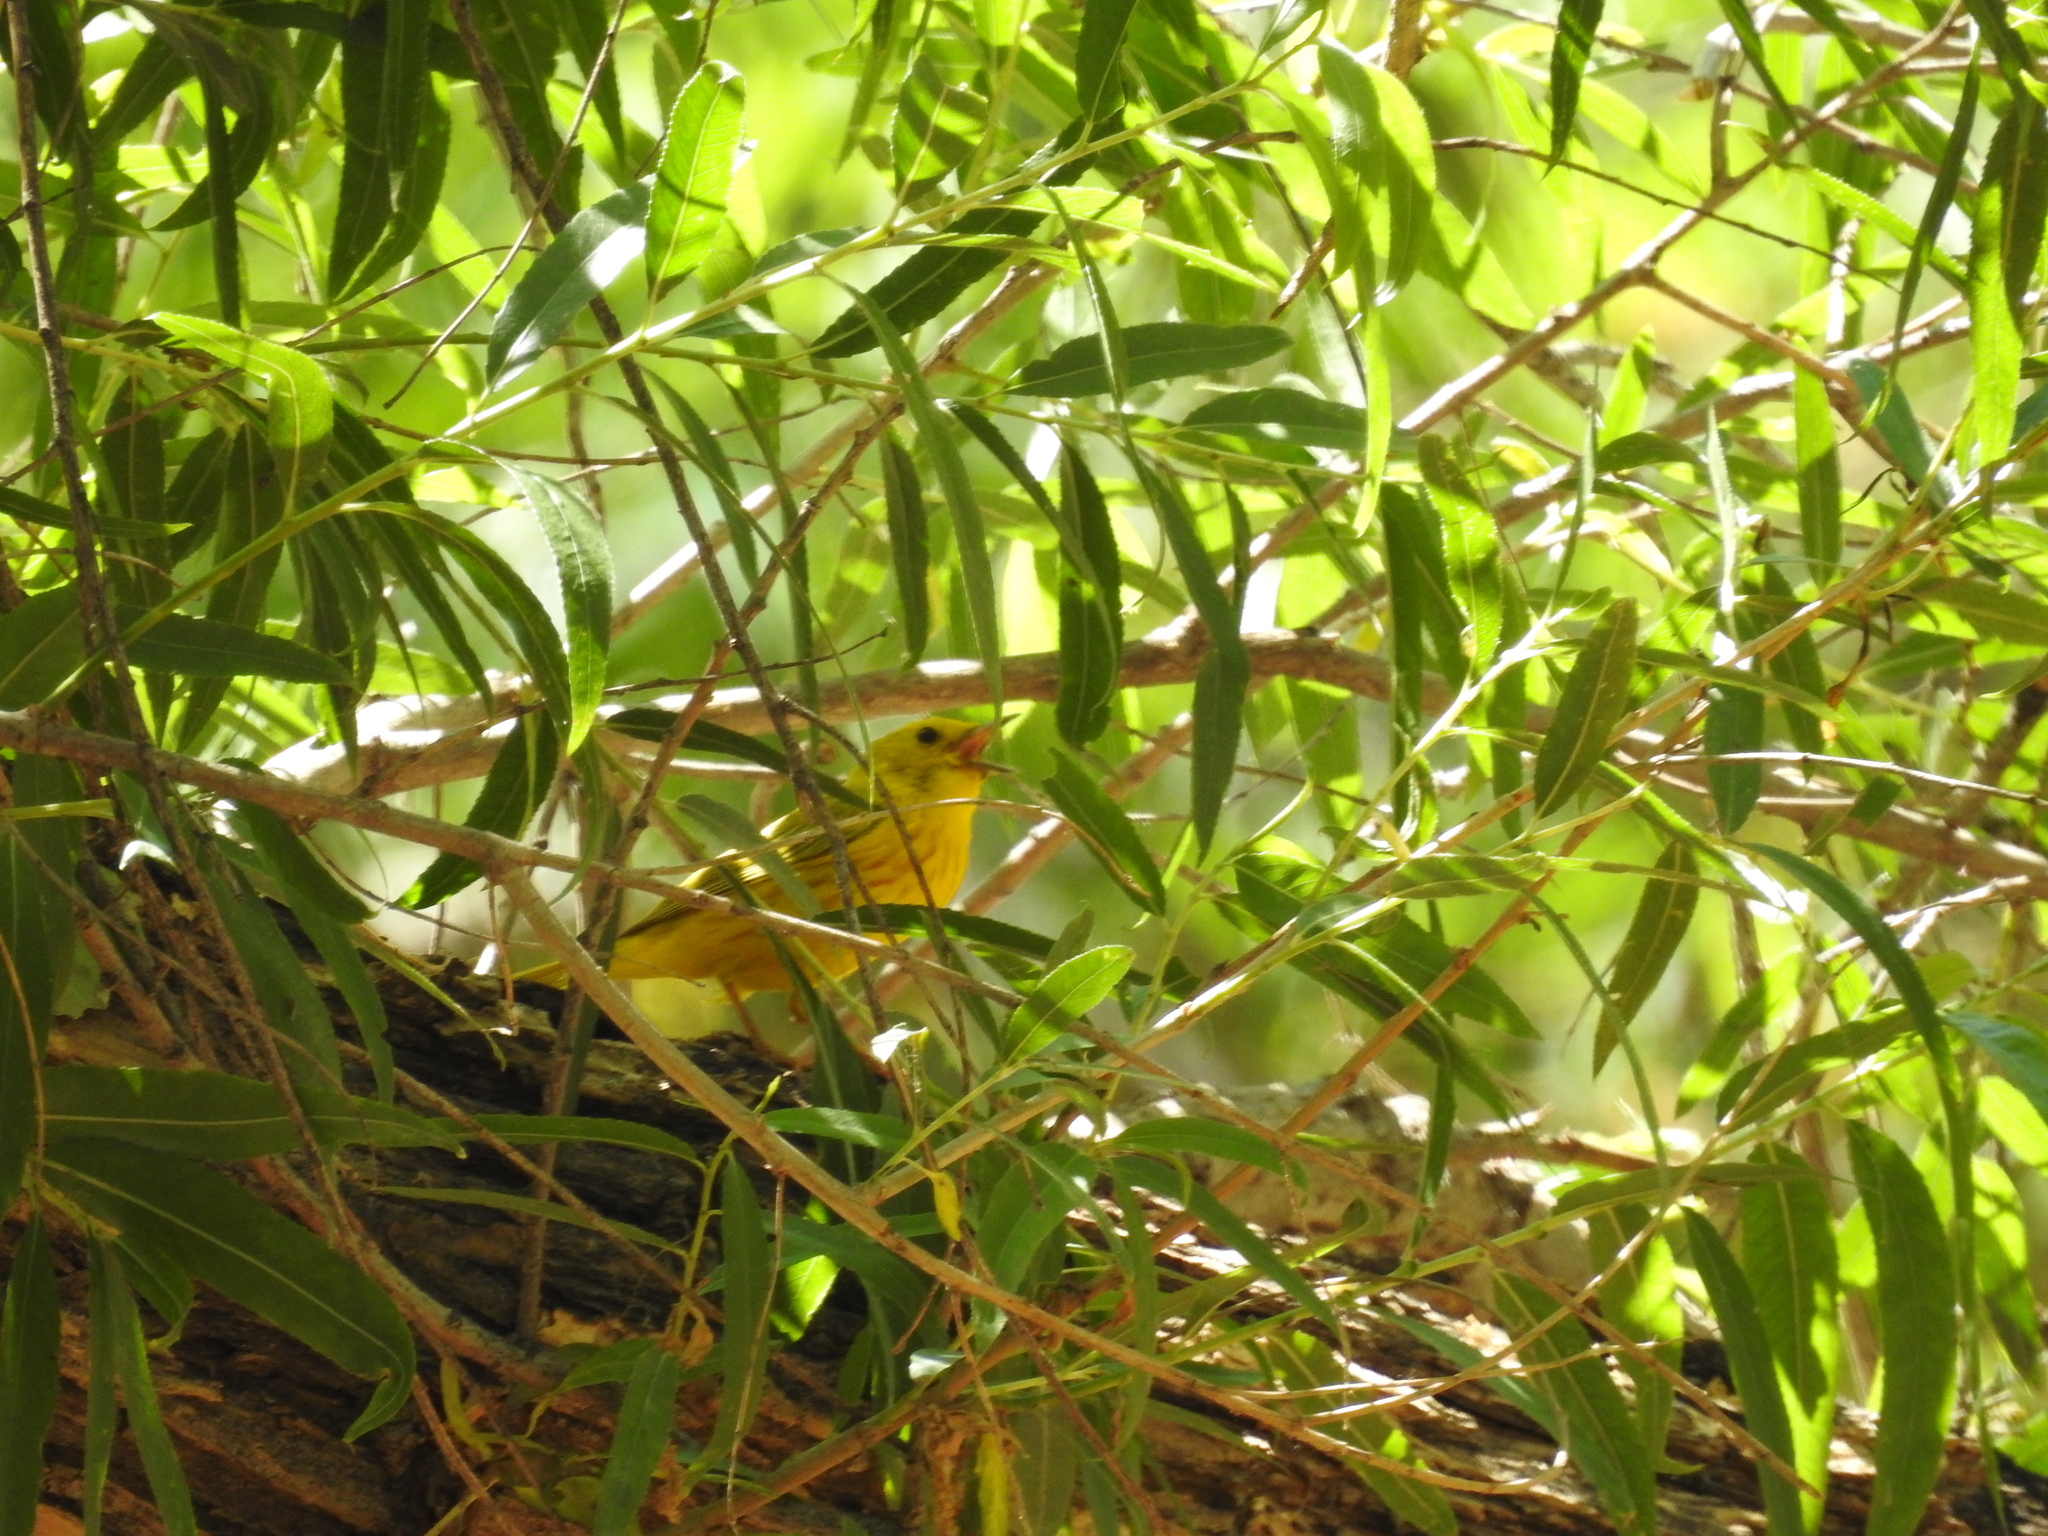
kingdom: Animalia
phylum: Chordata
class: Aves
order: Passeriformes
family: Parulidae
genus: Setophaga
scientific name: Setophaga petechia
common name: Yellow warbler
